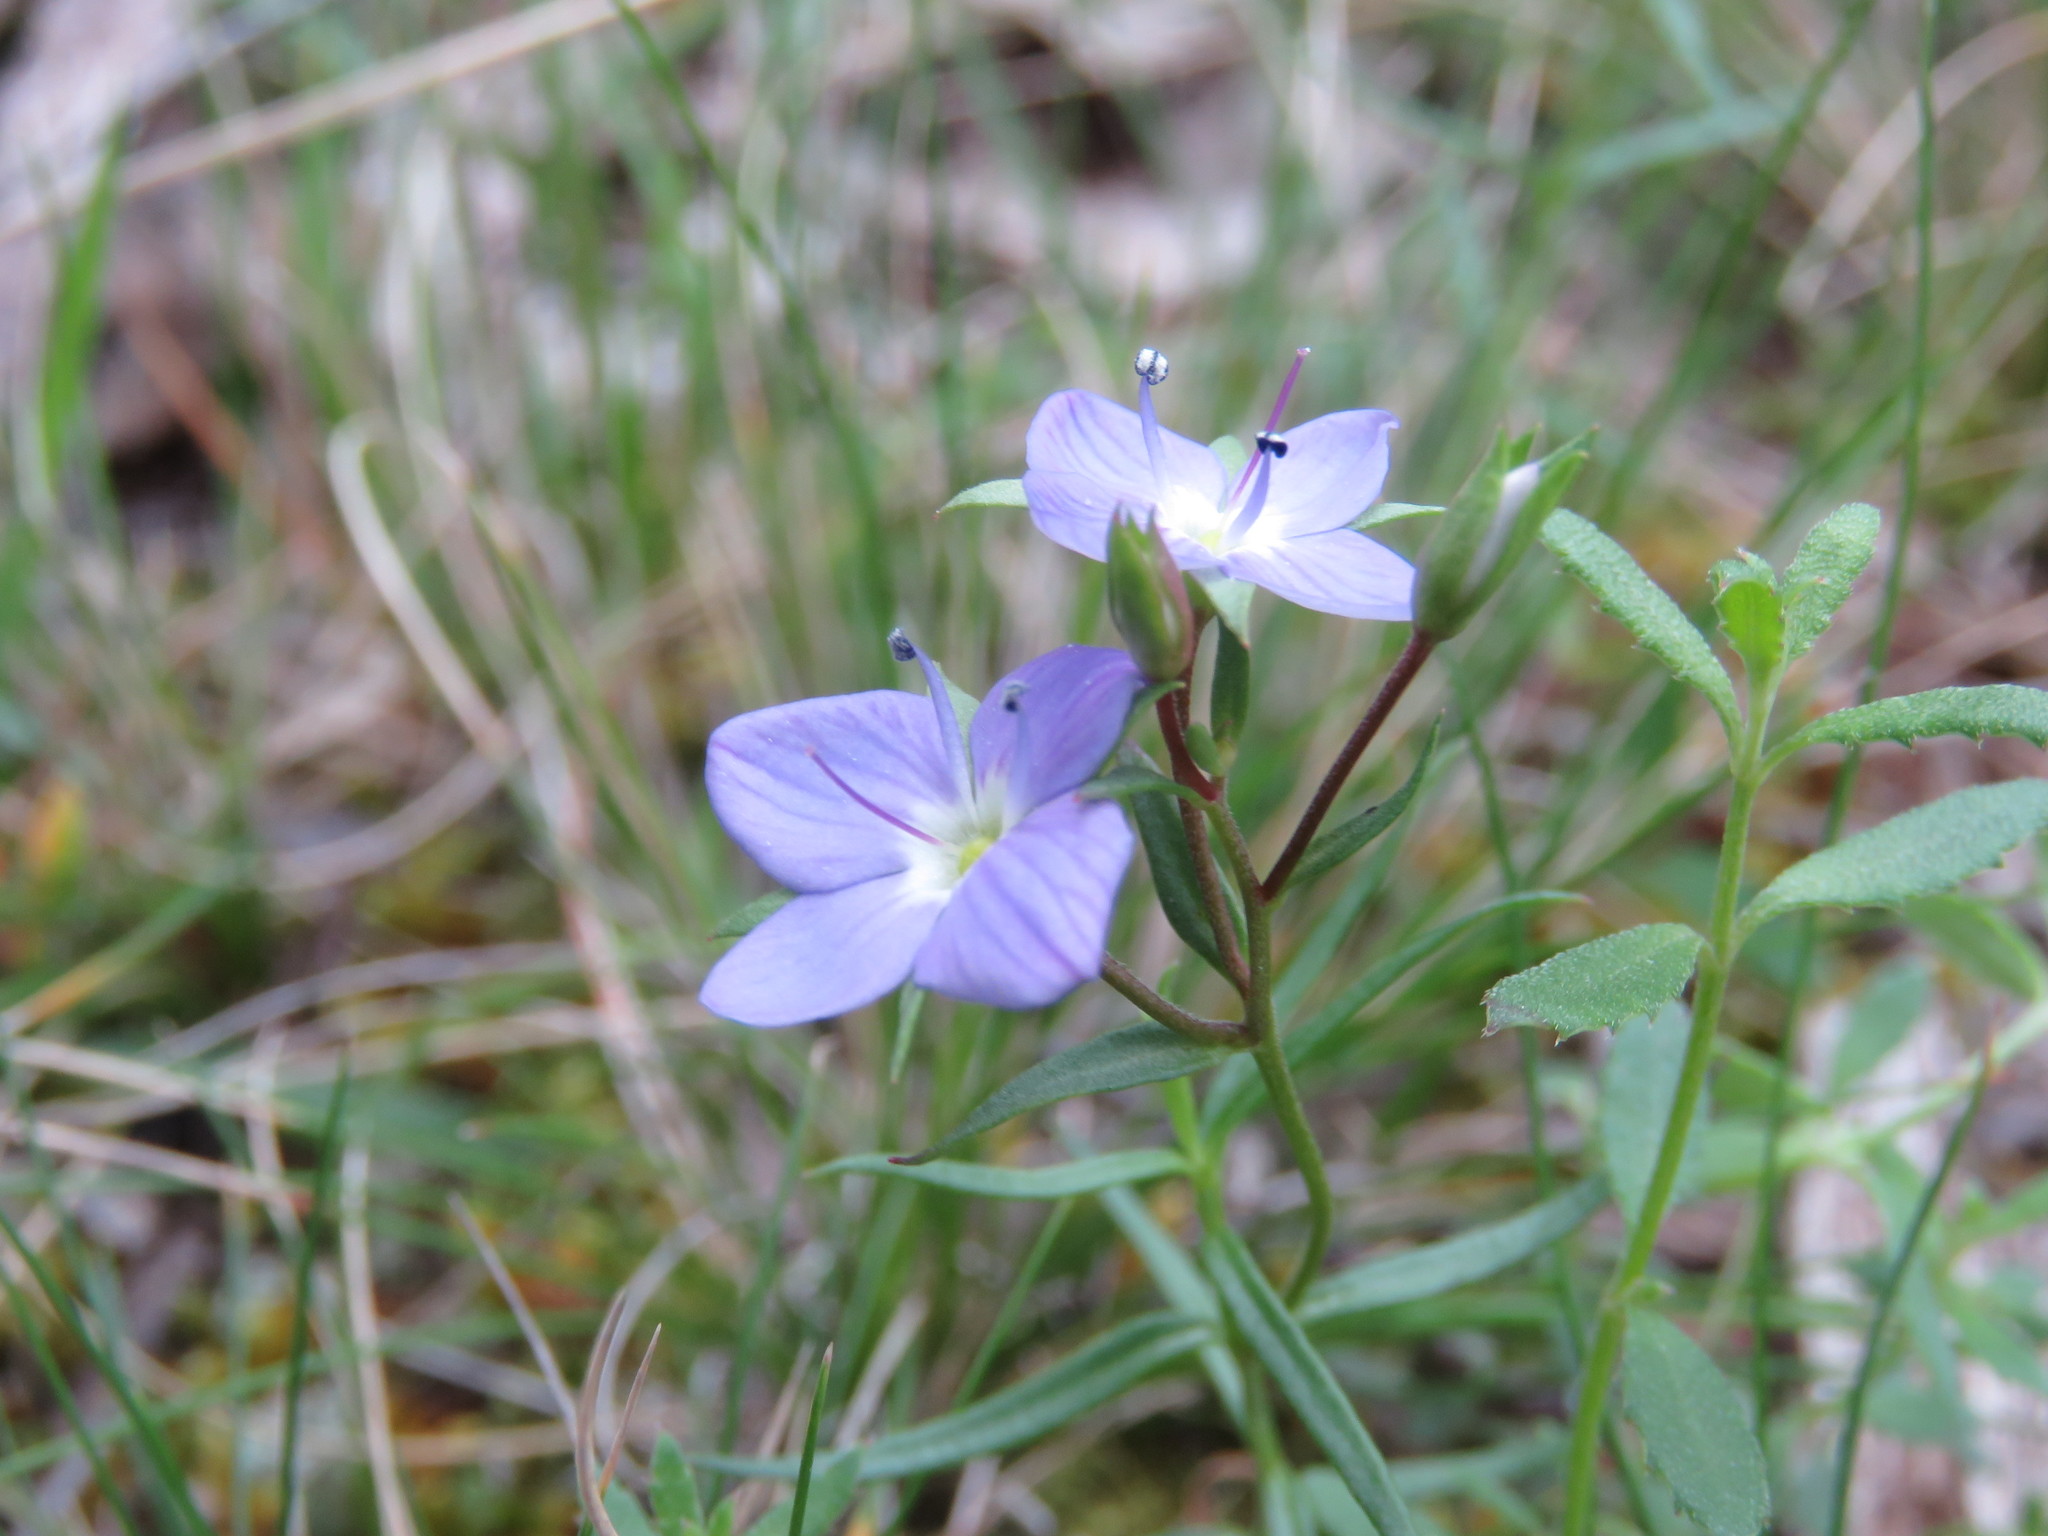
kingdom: Plantae
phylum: Tracheophyta
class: Magnoliopsida
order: Lamiales
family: Plantaginaceae
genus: Veronica
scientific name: Veronica gracilis
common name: Slender speedwell
